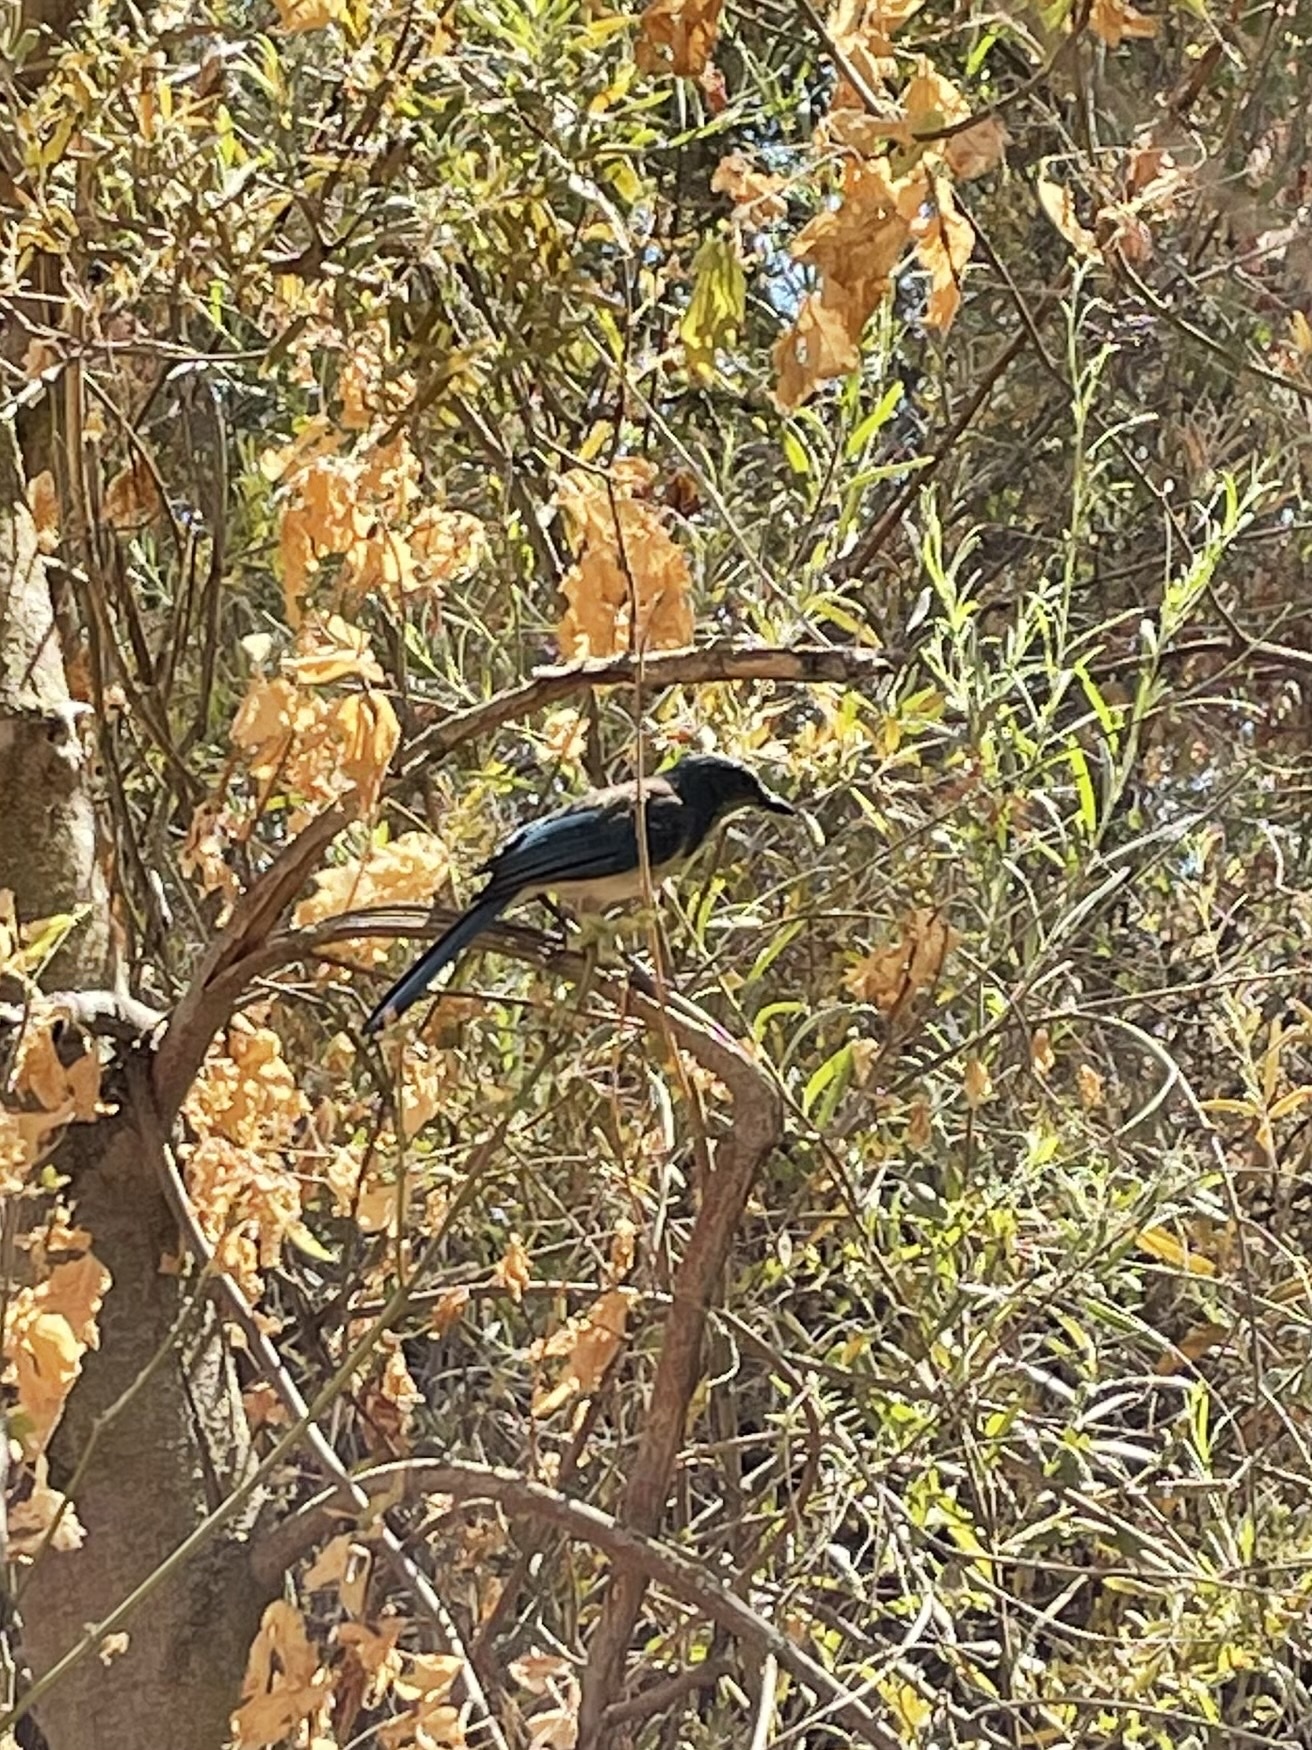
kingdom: Animalia
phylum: Chordata
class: Aves
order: Passeriformes
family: Corvidae
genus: Aphelocoma
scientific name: Aphelocoma californica
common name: California scrub-jay
